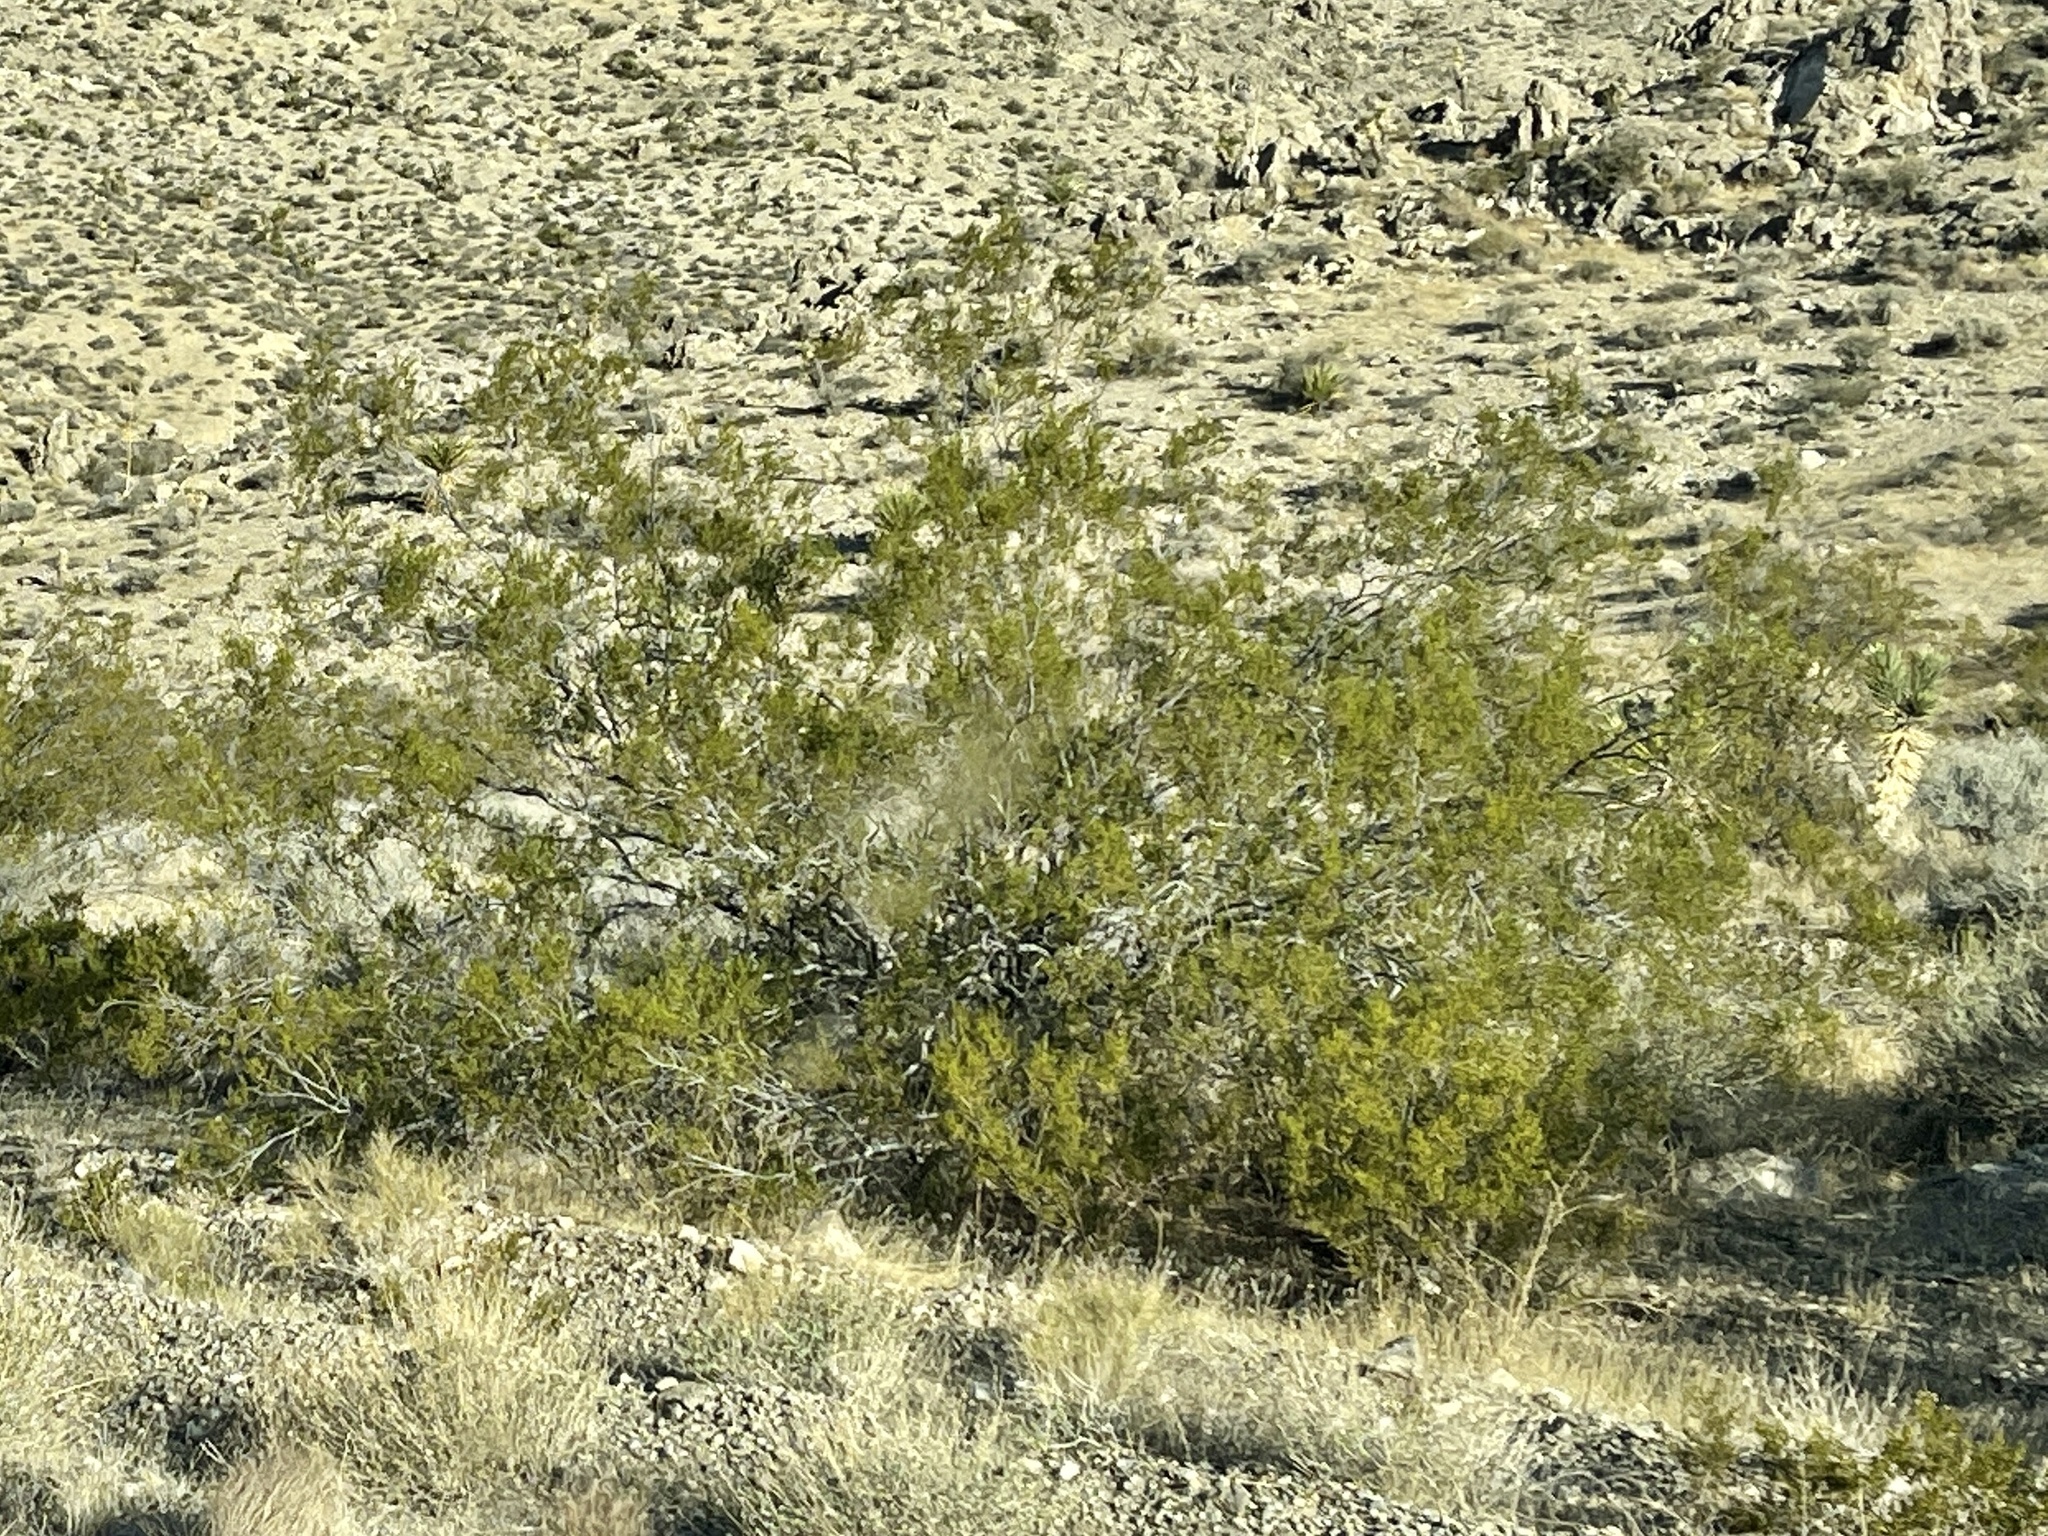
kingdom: Plantae
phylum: Tracheophyta
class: Magnoliopsida
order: Zygophyllales
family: Zygophyllaceae
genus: Larrea
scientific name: Larrea tridentata
